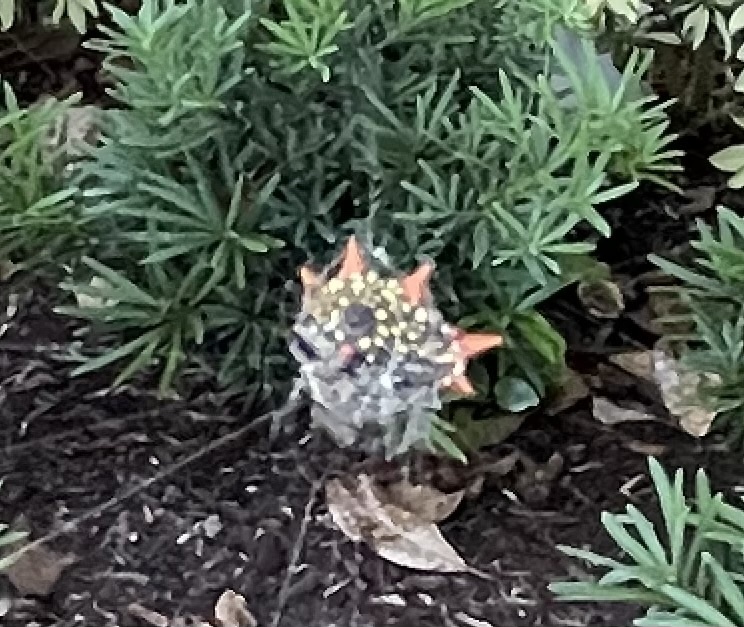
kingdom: Animalia
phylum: Arthropoda
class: Arachnida
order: Araneae
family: Araneidae
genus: Gasteracantha
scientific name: Gasteracantha cancriformis
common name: Orb weavers
